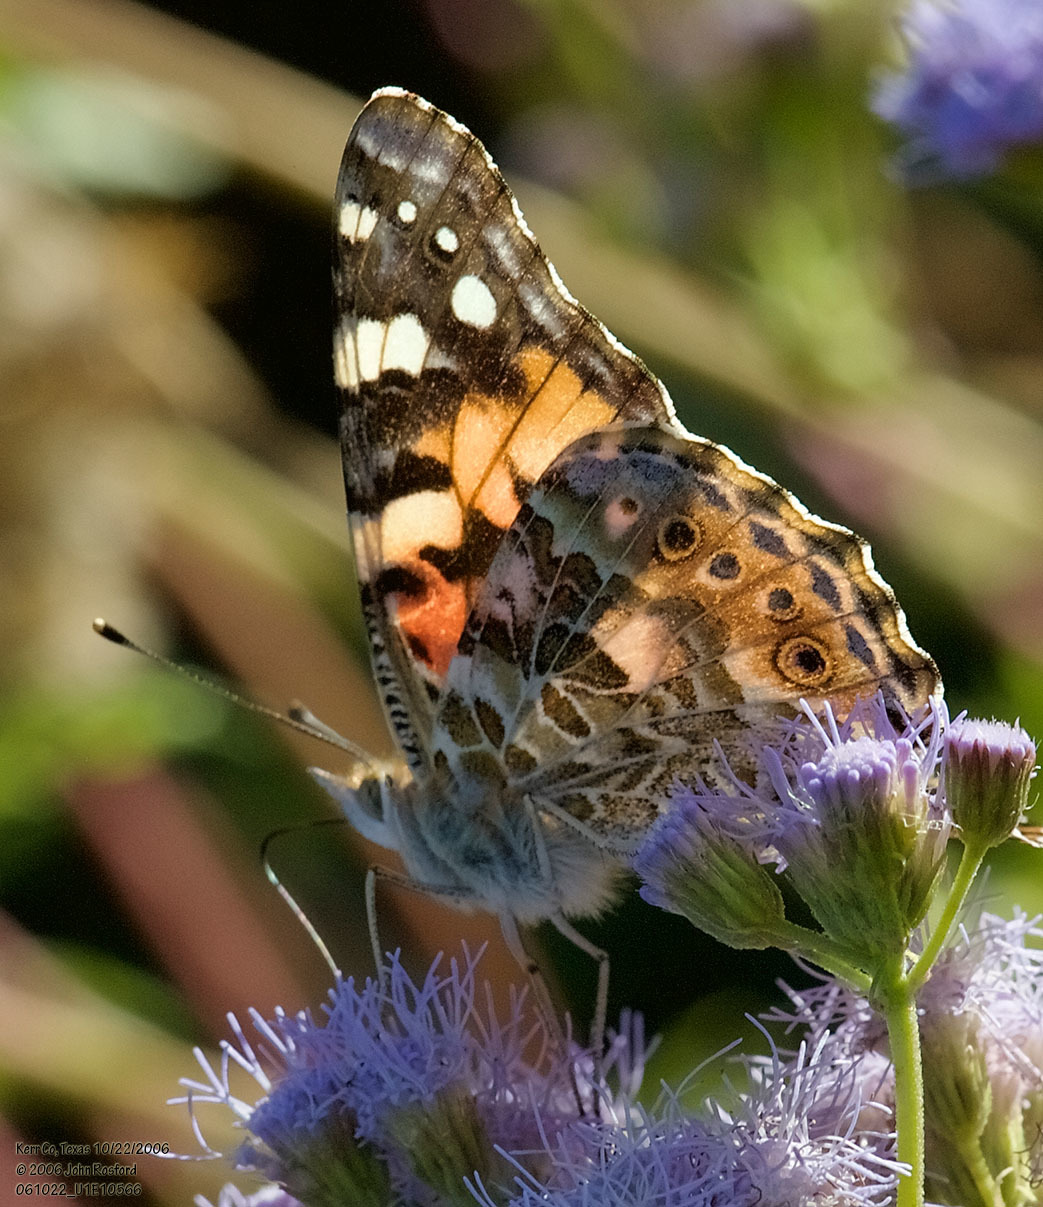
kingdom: Animalia
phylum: Arthropoda
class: Insecta
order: Lepidoptera
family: Nymphalidae
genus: Vanessa
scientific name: Vanessa cardui
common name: Painted lady
